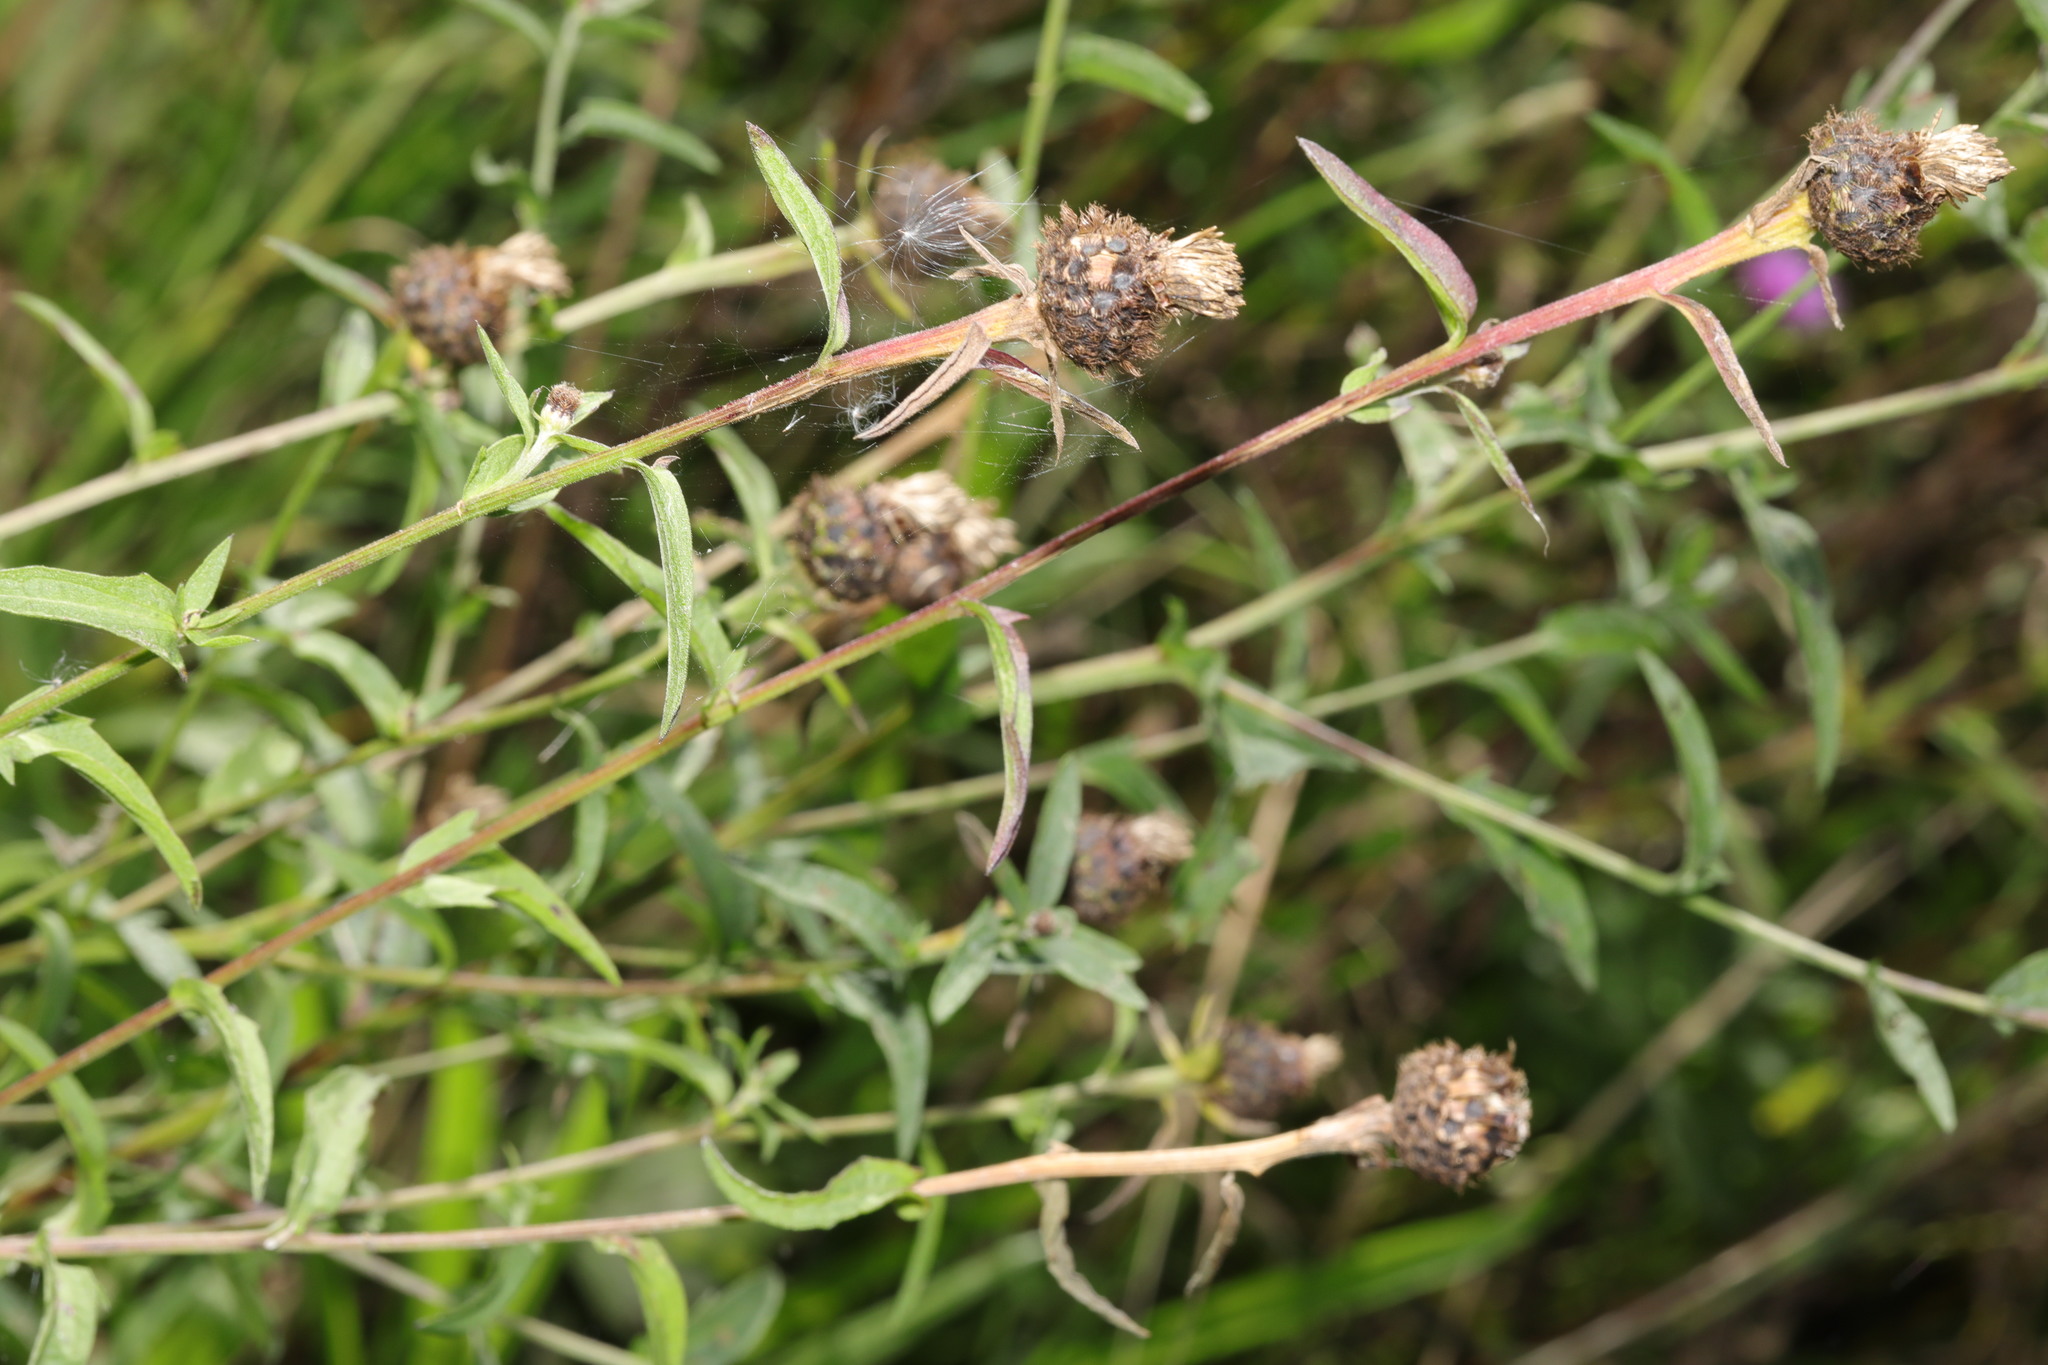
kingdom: Plantae
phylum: Tracheophyta
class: Magnoliopsida
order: Asterales
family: Asteraceae
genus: Centaurea
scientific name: Centaurea nigra
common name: Lesser knapweed
